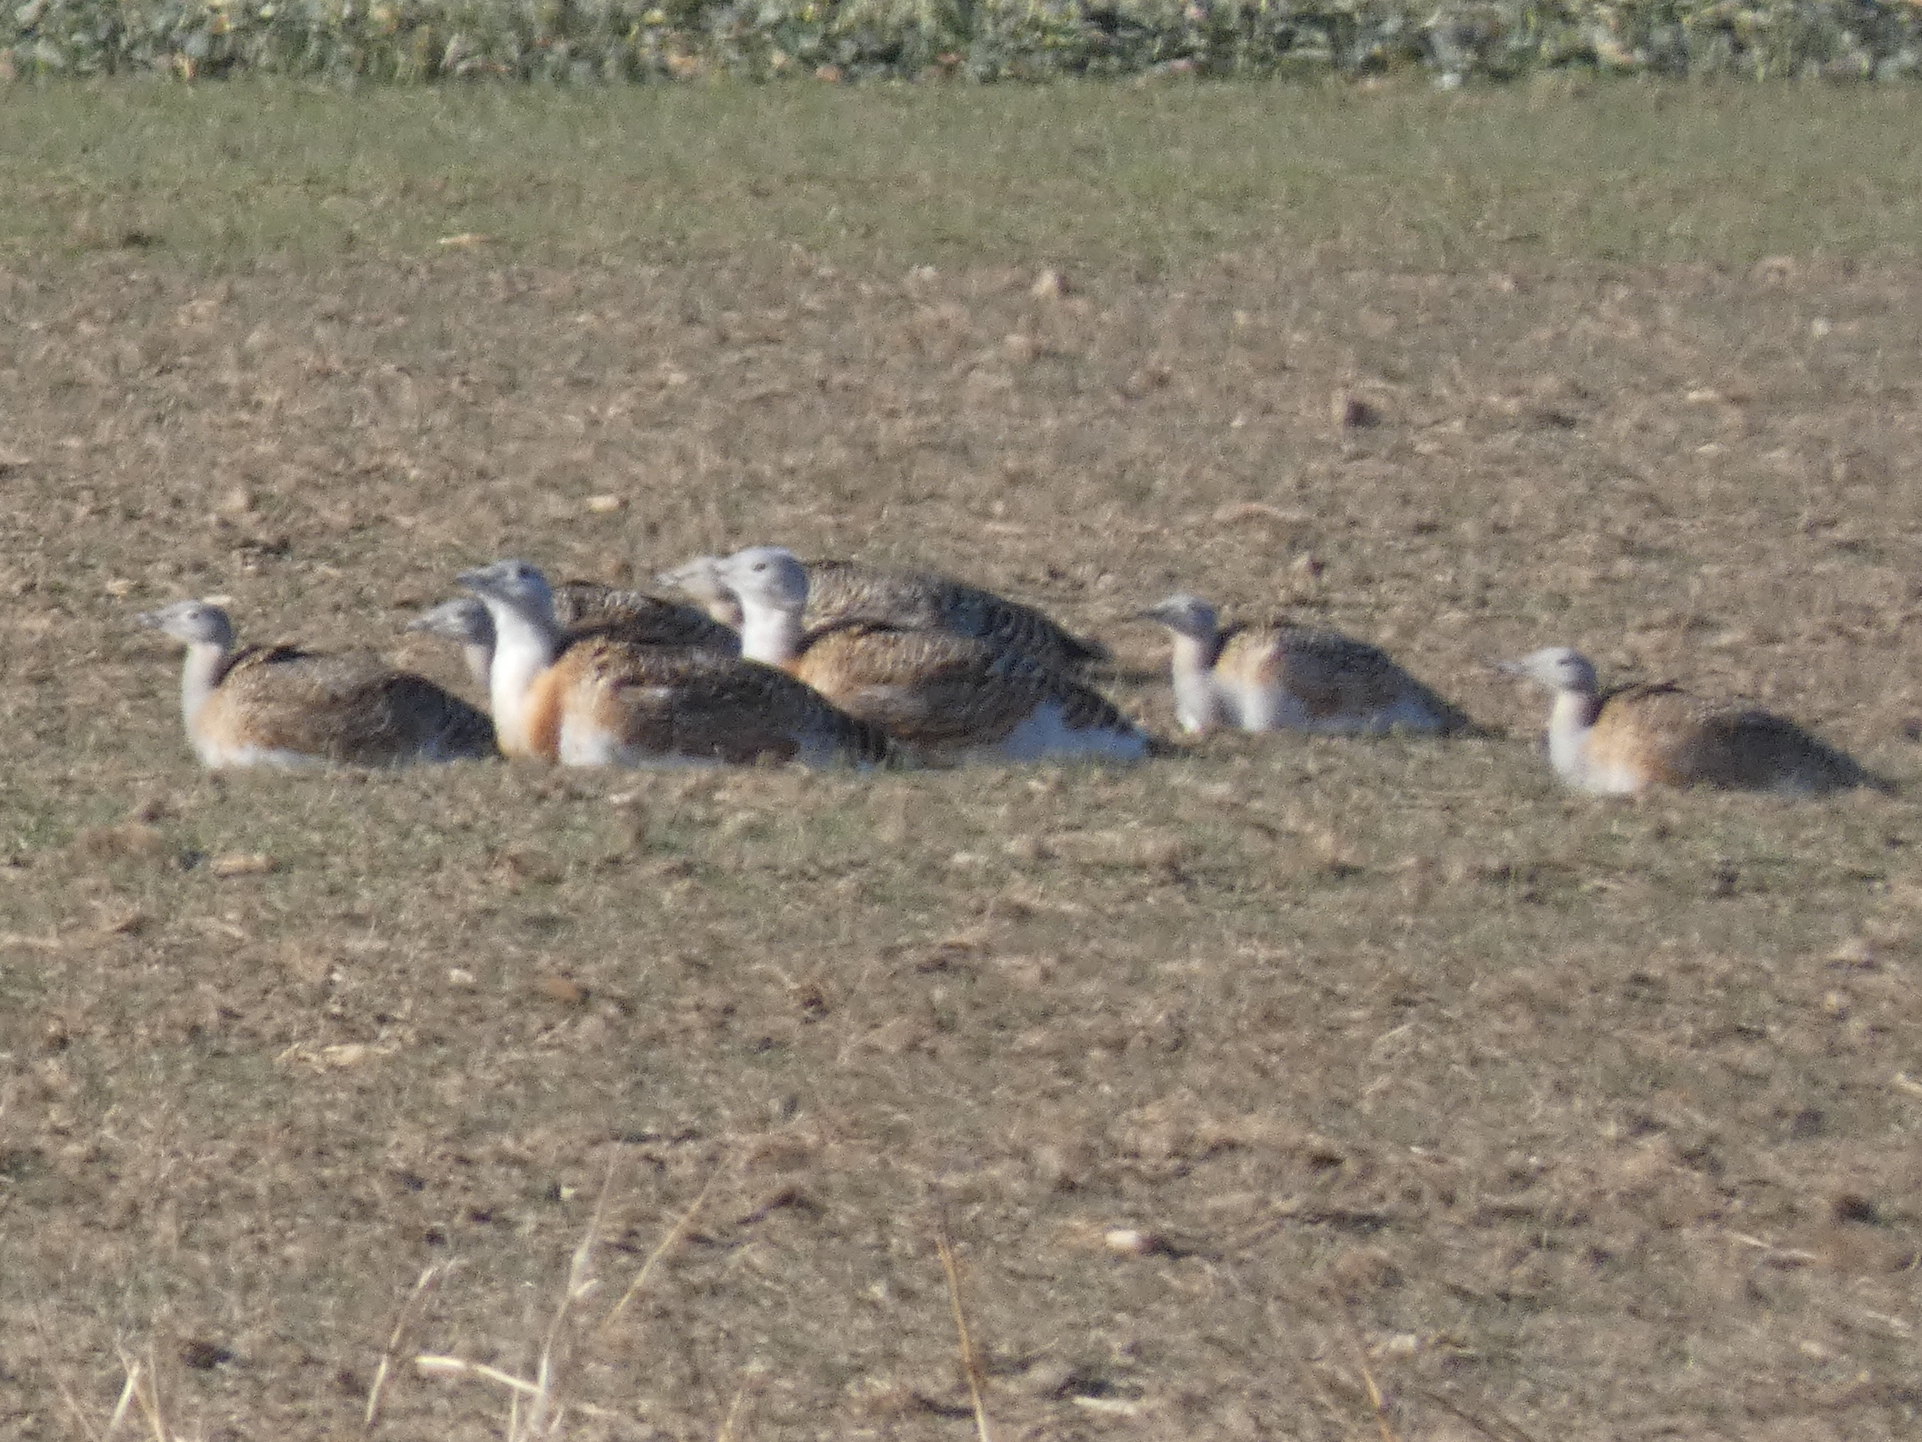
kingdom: Animalia
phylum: Chordata
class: Aves
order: Otidiformes
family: Otididae
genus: Otis
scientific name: Otis tarda
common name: Great bustard
